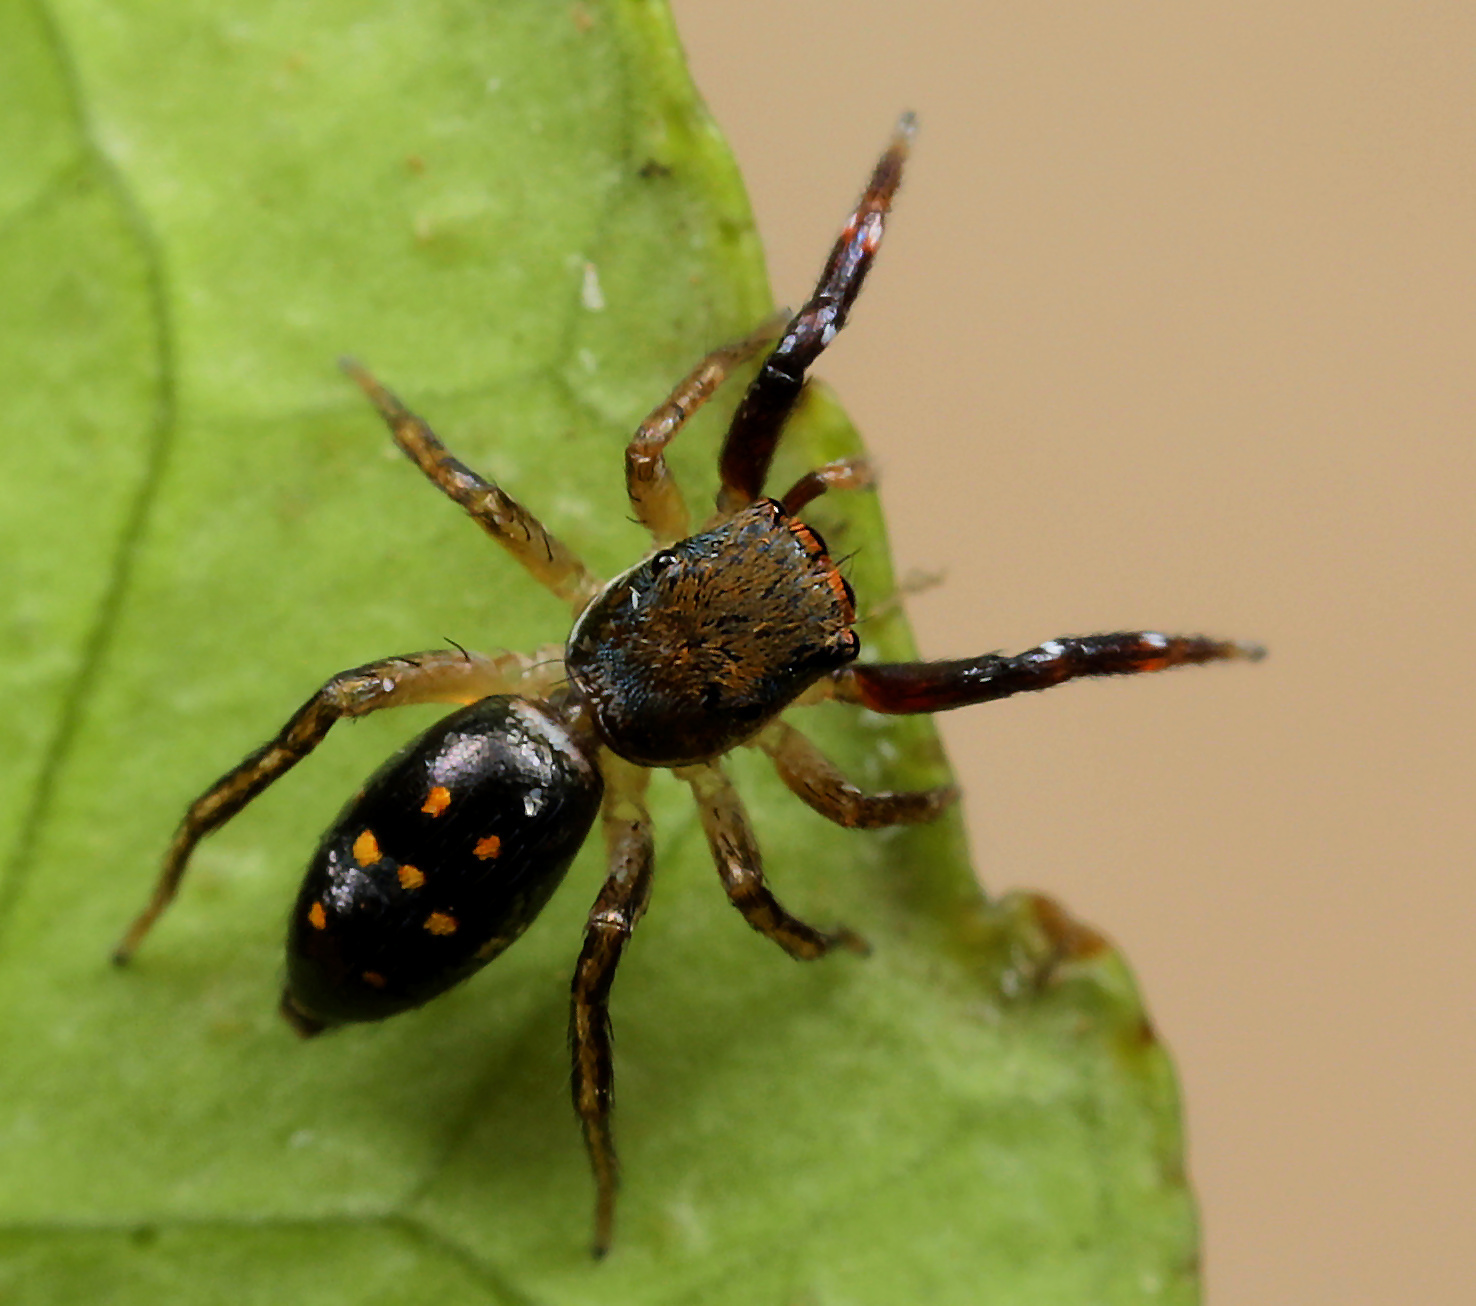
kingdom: Animalia
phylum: Arthropoda
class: Arachnida
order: Araneae
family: Salticidae
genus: Natta
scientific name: Natta horizontalis
